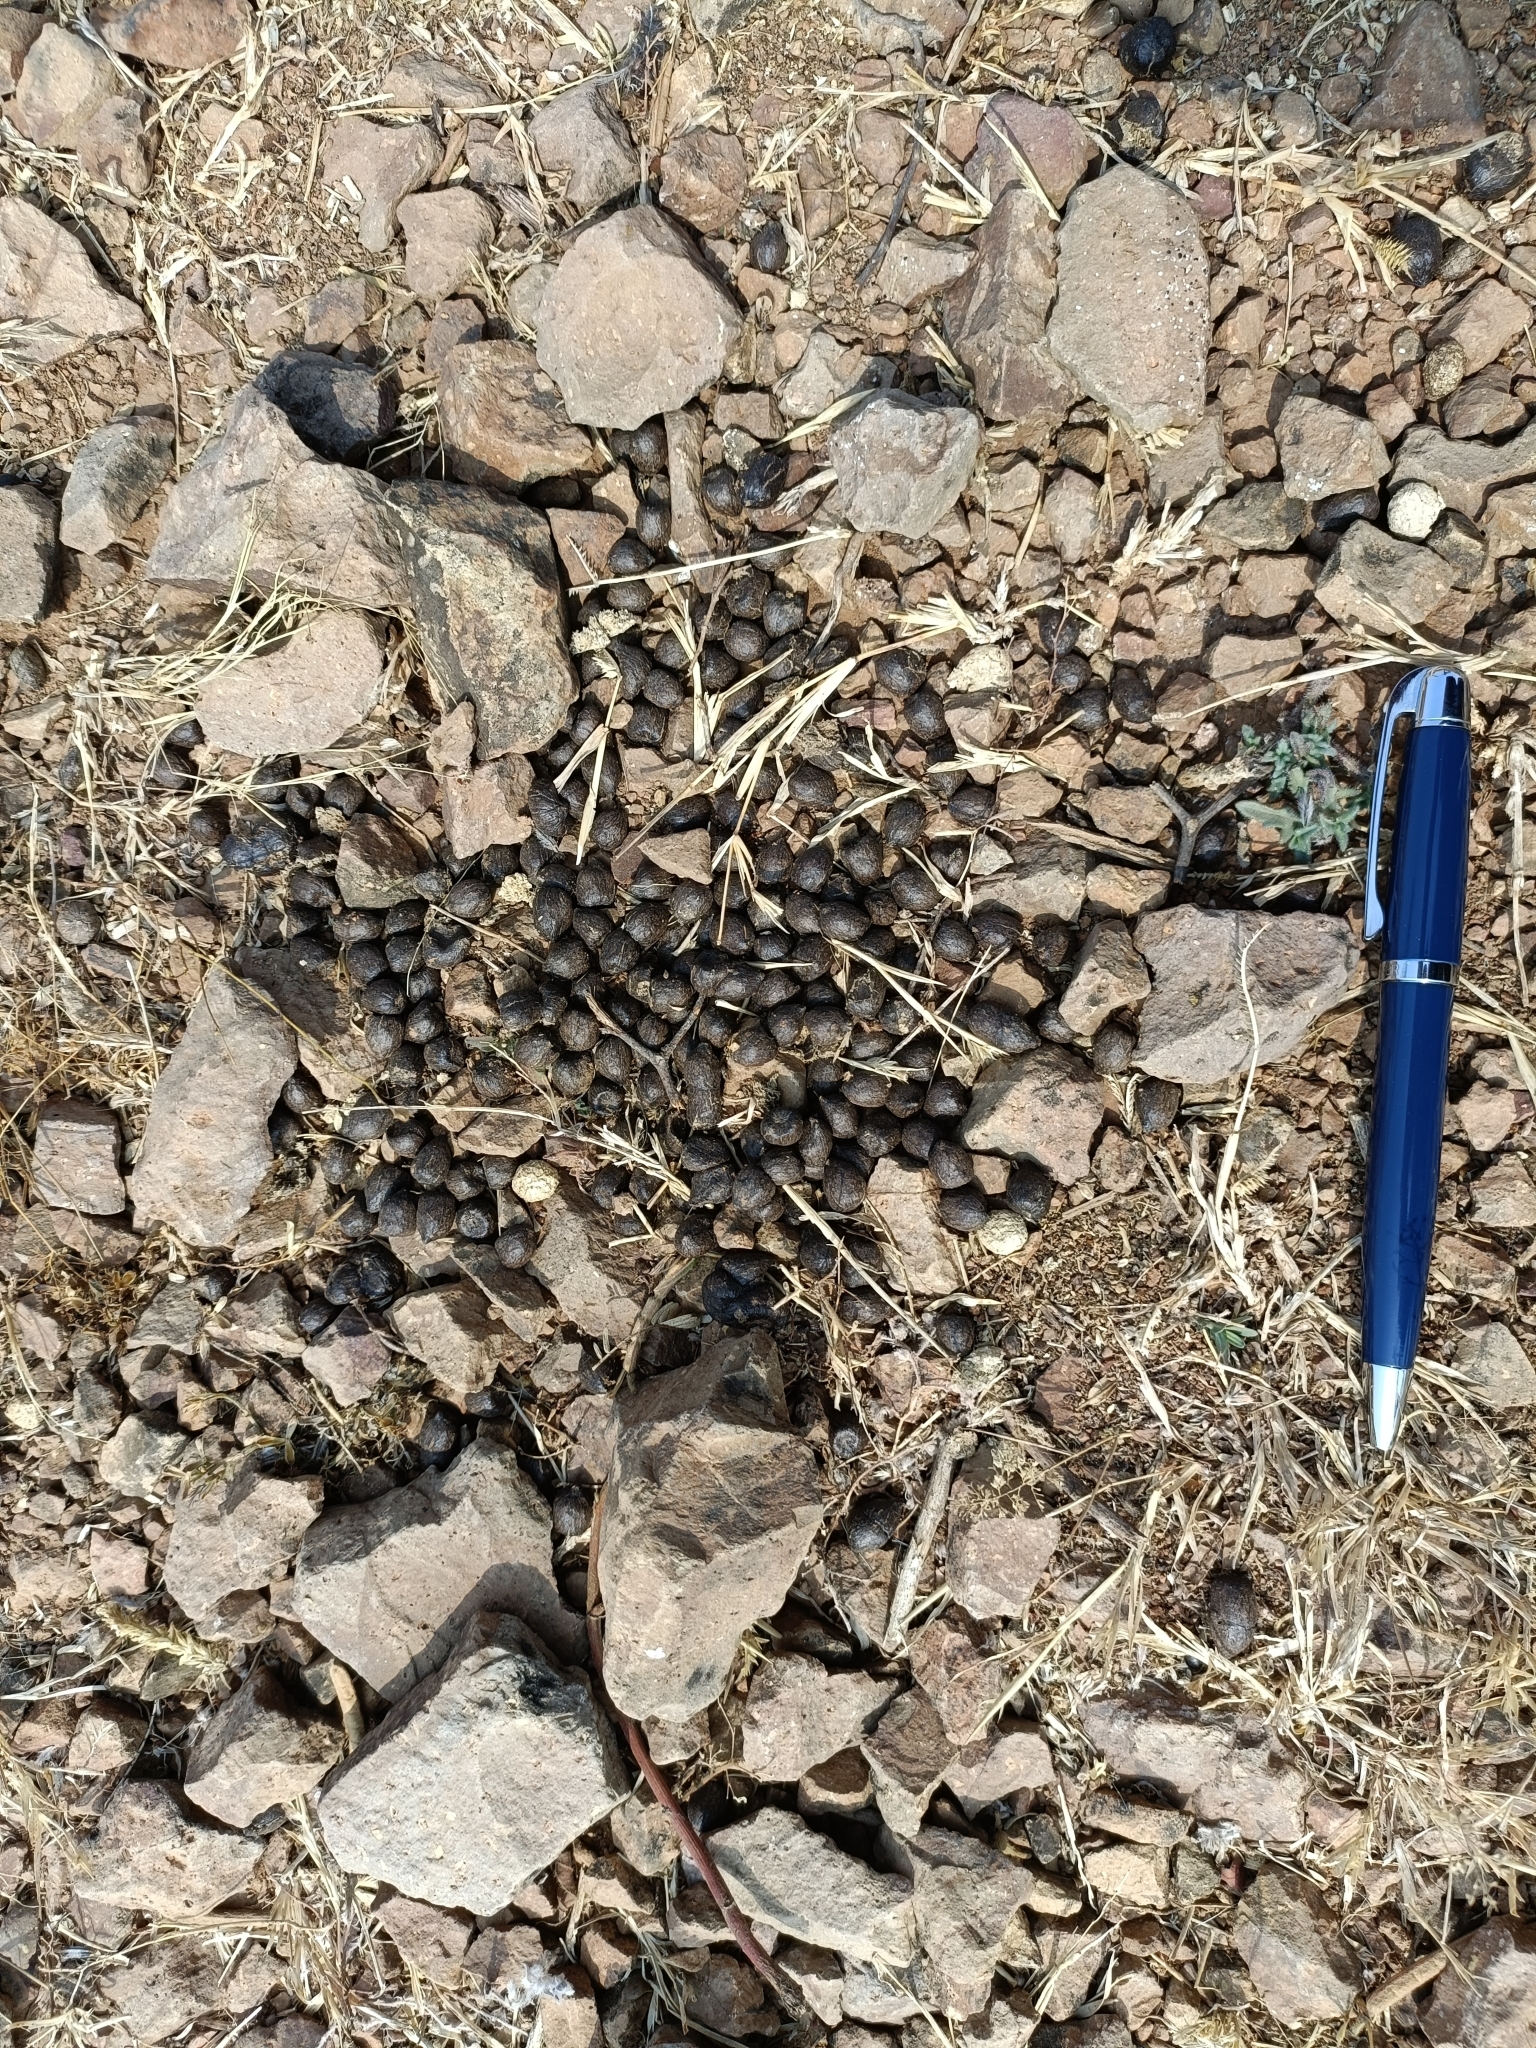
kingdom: Animalia
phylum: Chordata
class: Mammalia
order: Artiodactyla
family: Bovidae
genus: Antilope
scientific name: Antilope cervicapra
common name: Blackbuck
